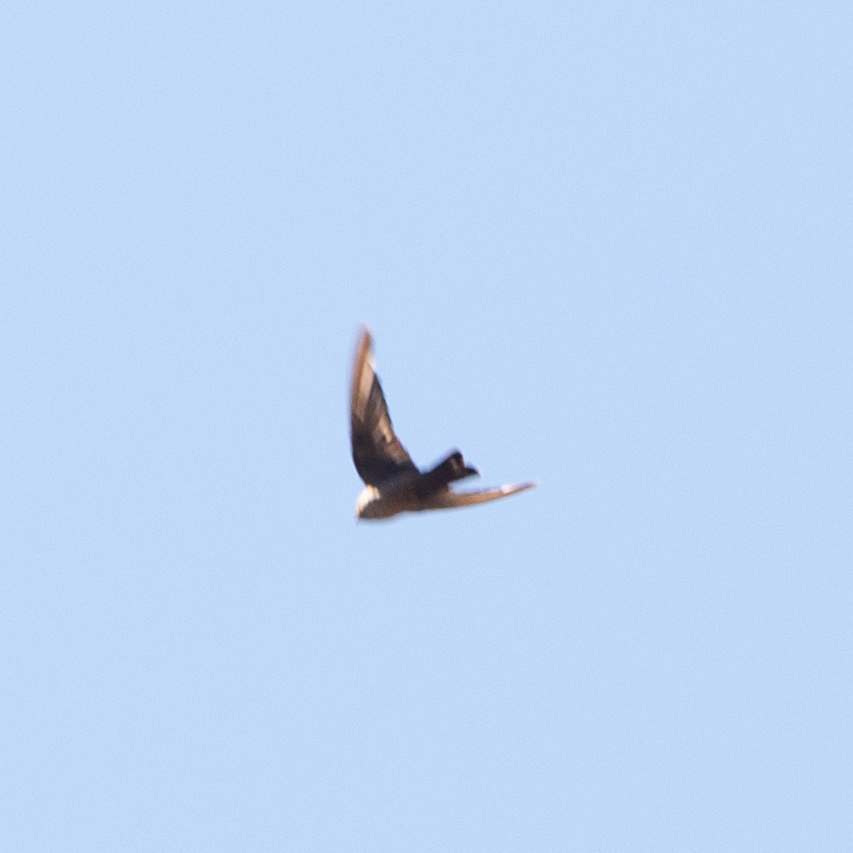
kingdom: Animalia
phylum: Chordata
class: Aves
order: Passeriformes
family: Hirundinidae
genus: Ptyonoprogne
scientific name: Ptyonoprogne rupestris
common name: Eurasian crag martin
